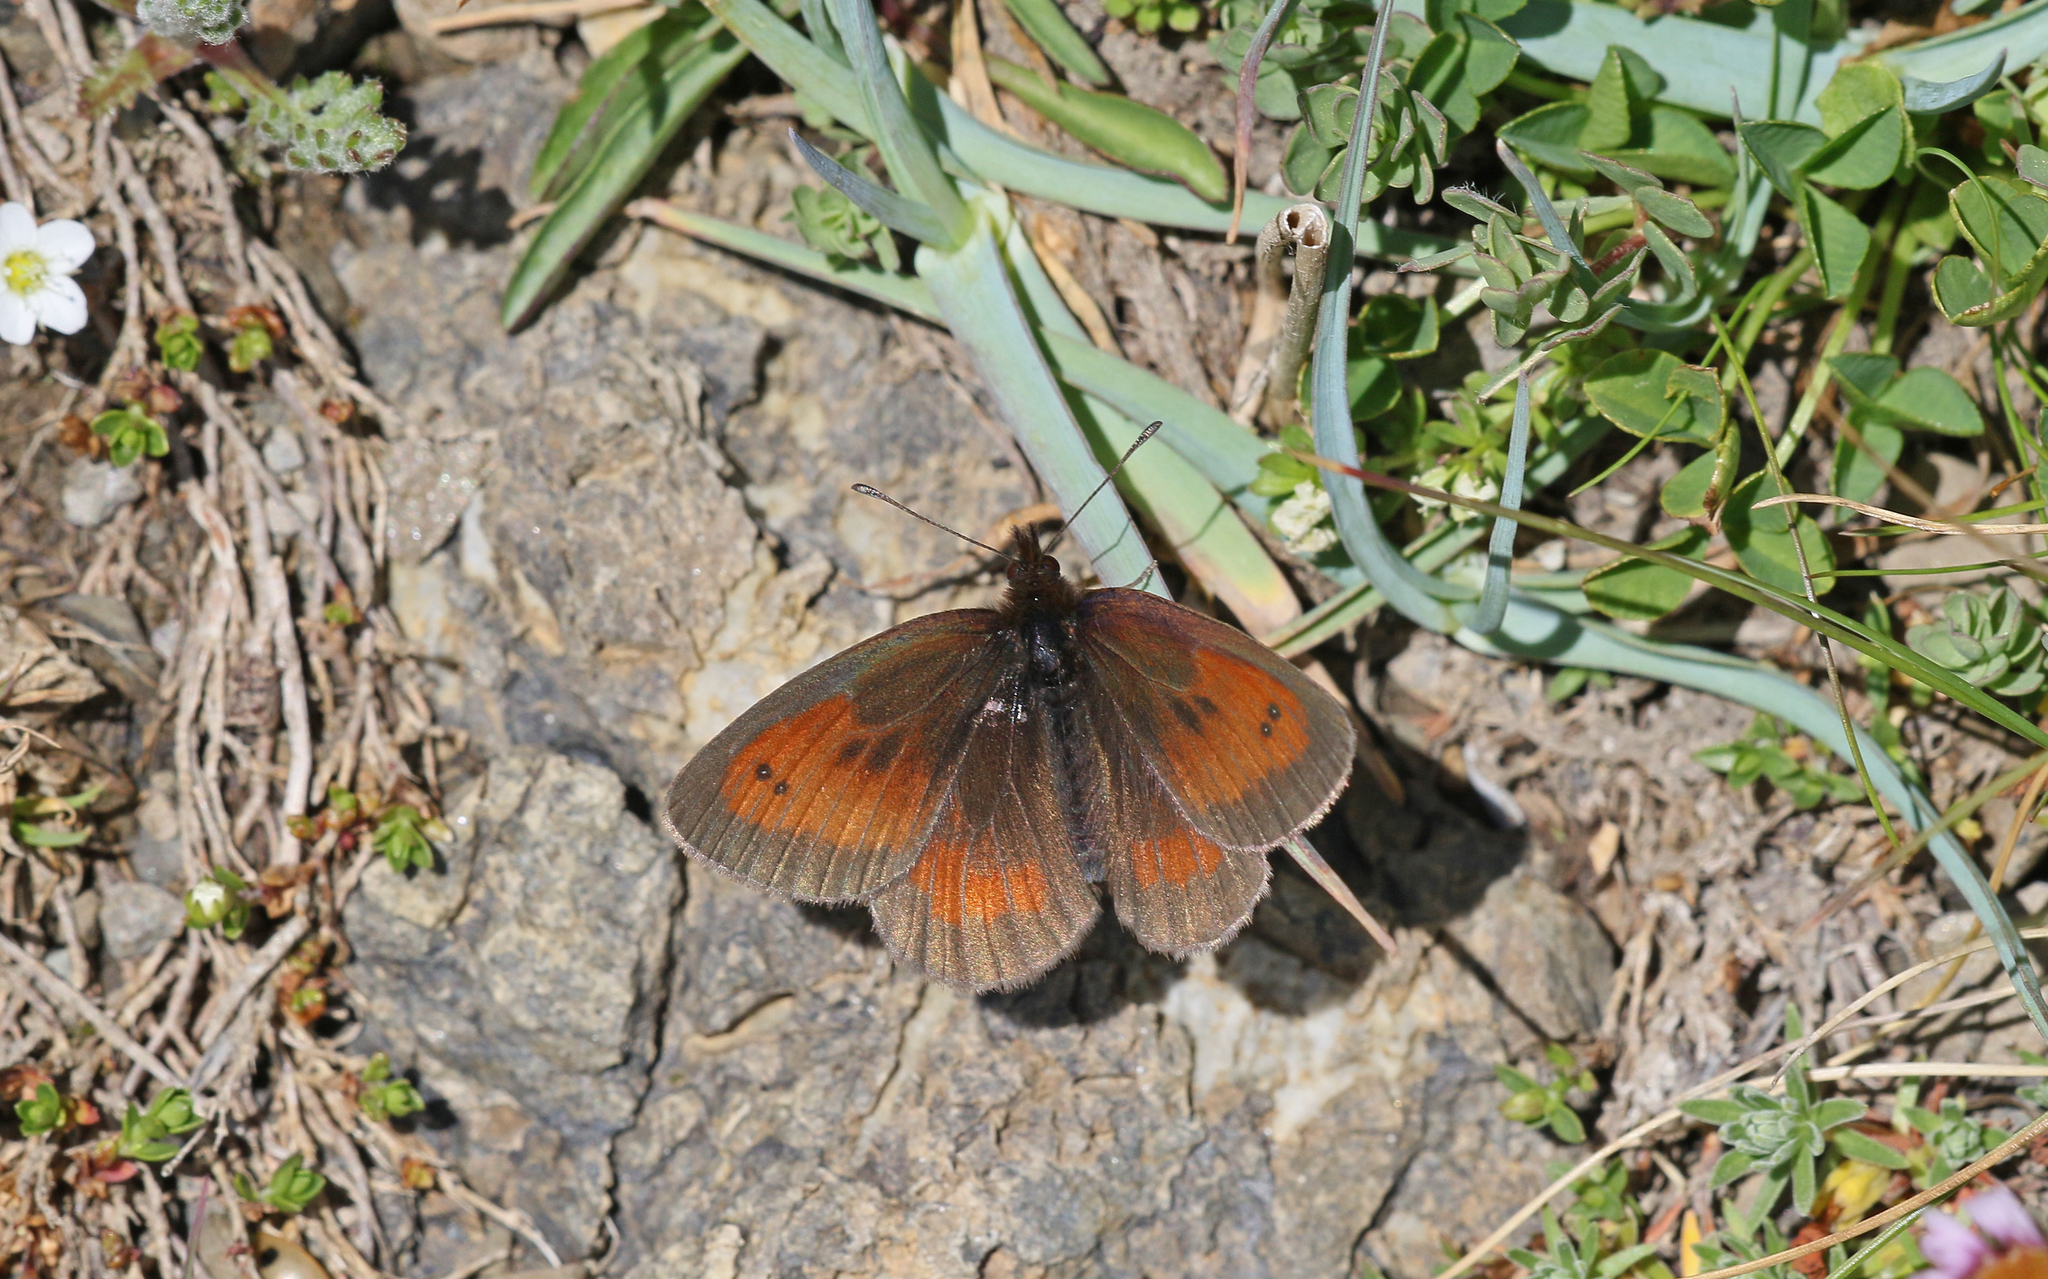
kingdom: Animalia
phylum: Arthropoda
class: Insecta
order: Lepidoptera
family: Nymphalidae
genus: Erebia
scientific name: Erebia mnestra
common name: Mnestra’s ringlet
